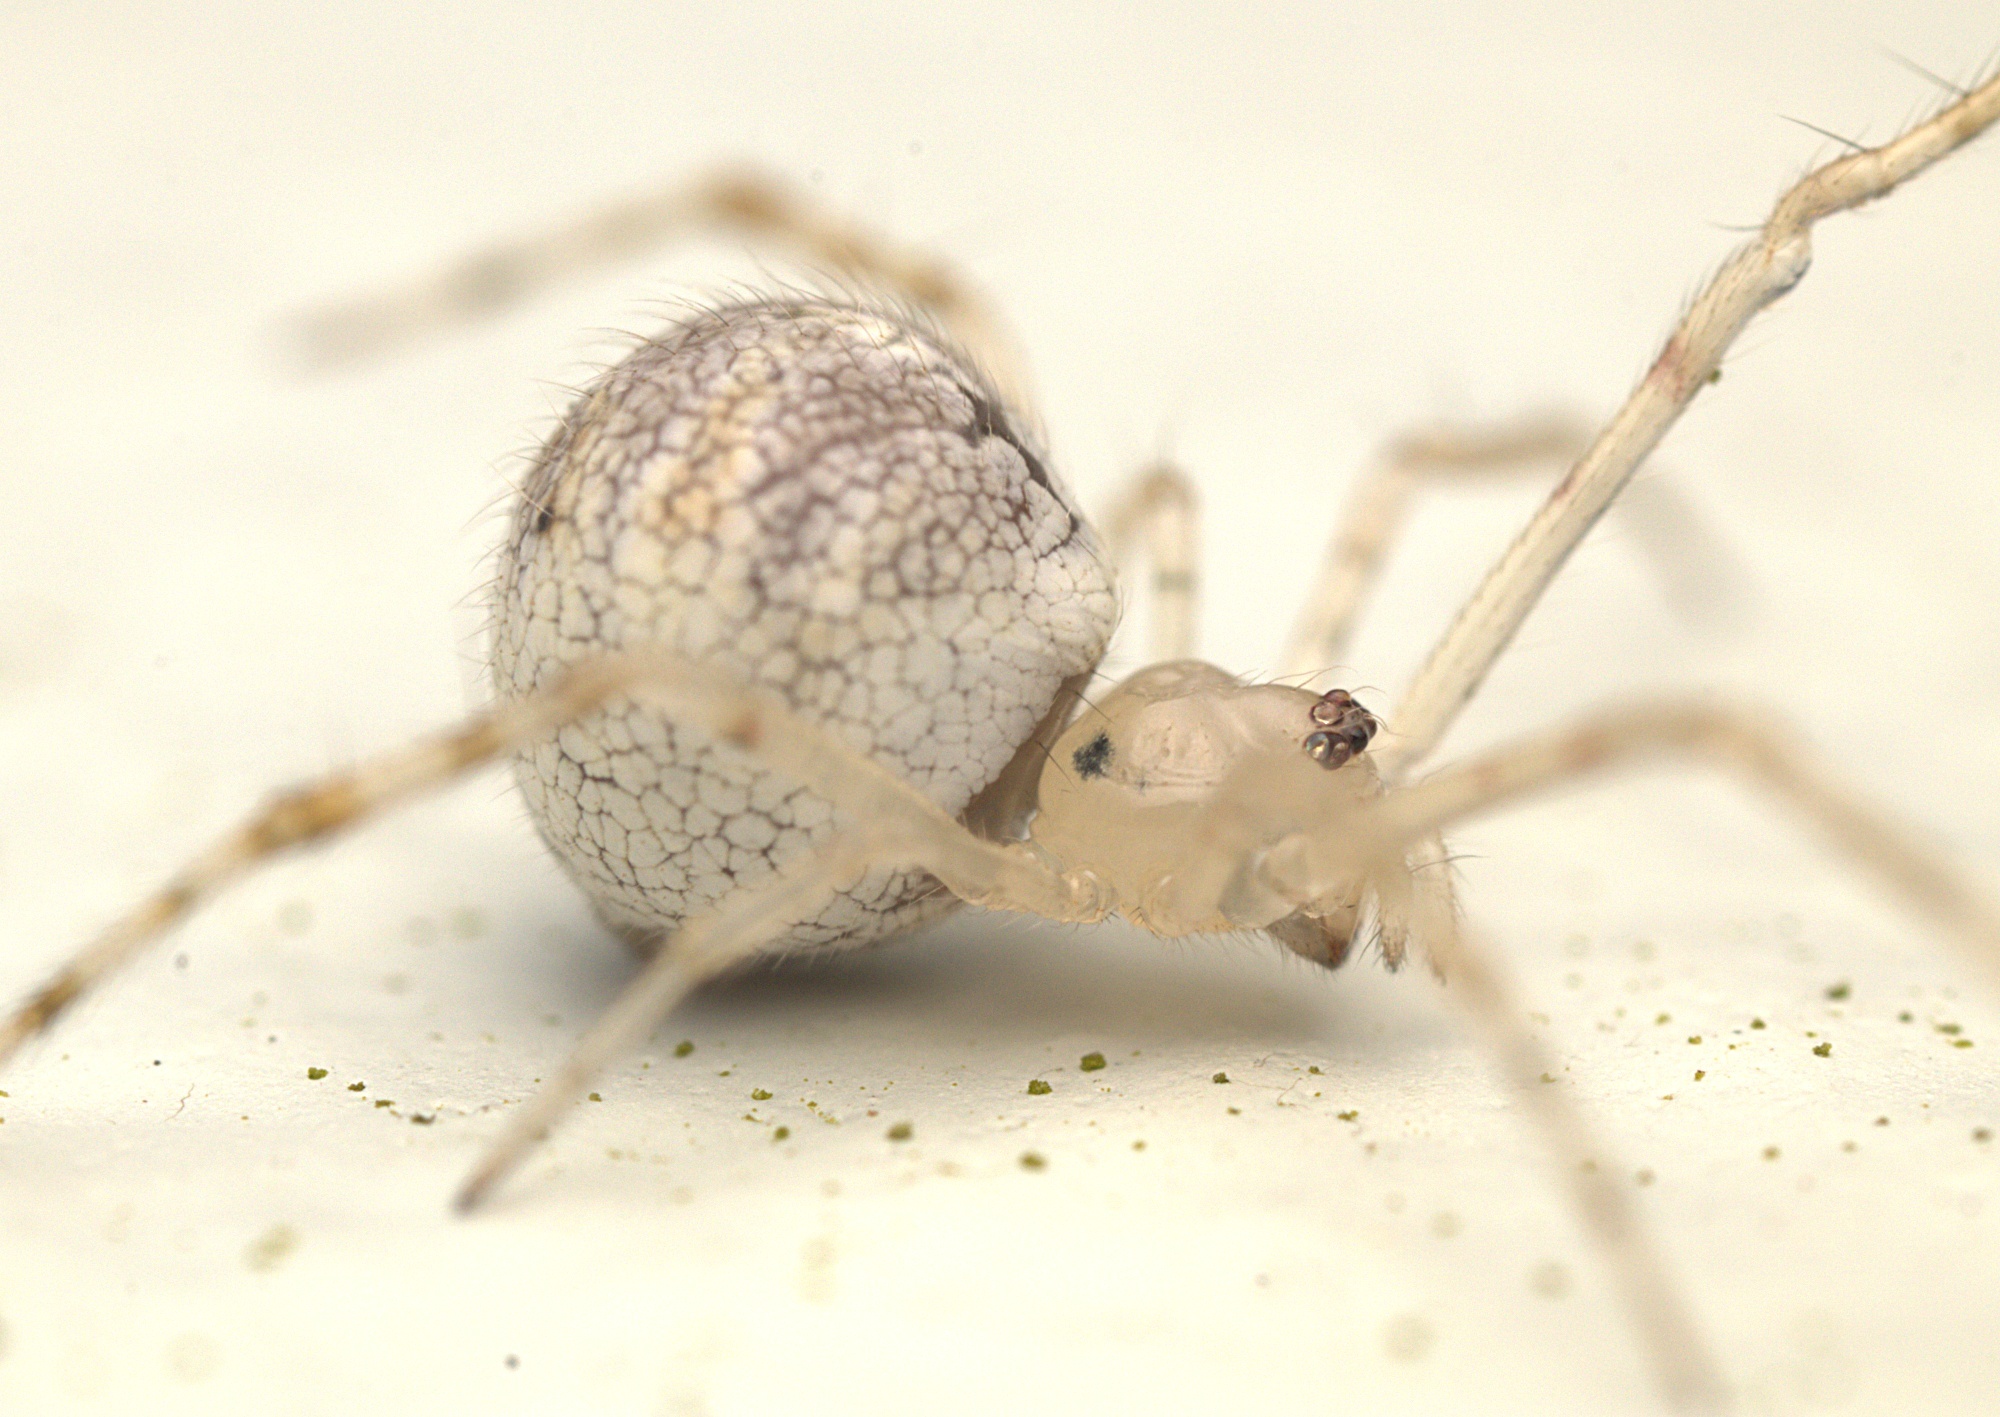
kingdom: Animalia
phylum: Arthropoda
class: Arachnida
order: Araneae
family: Theridiidae
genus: Cryptachaea
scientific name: Cryptachaea gigantipes
